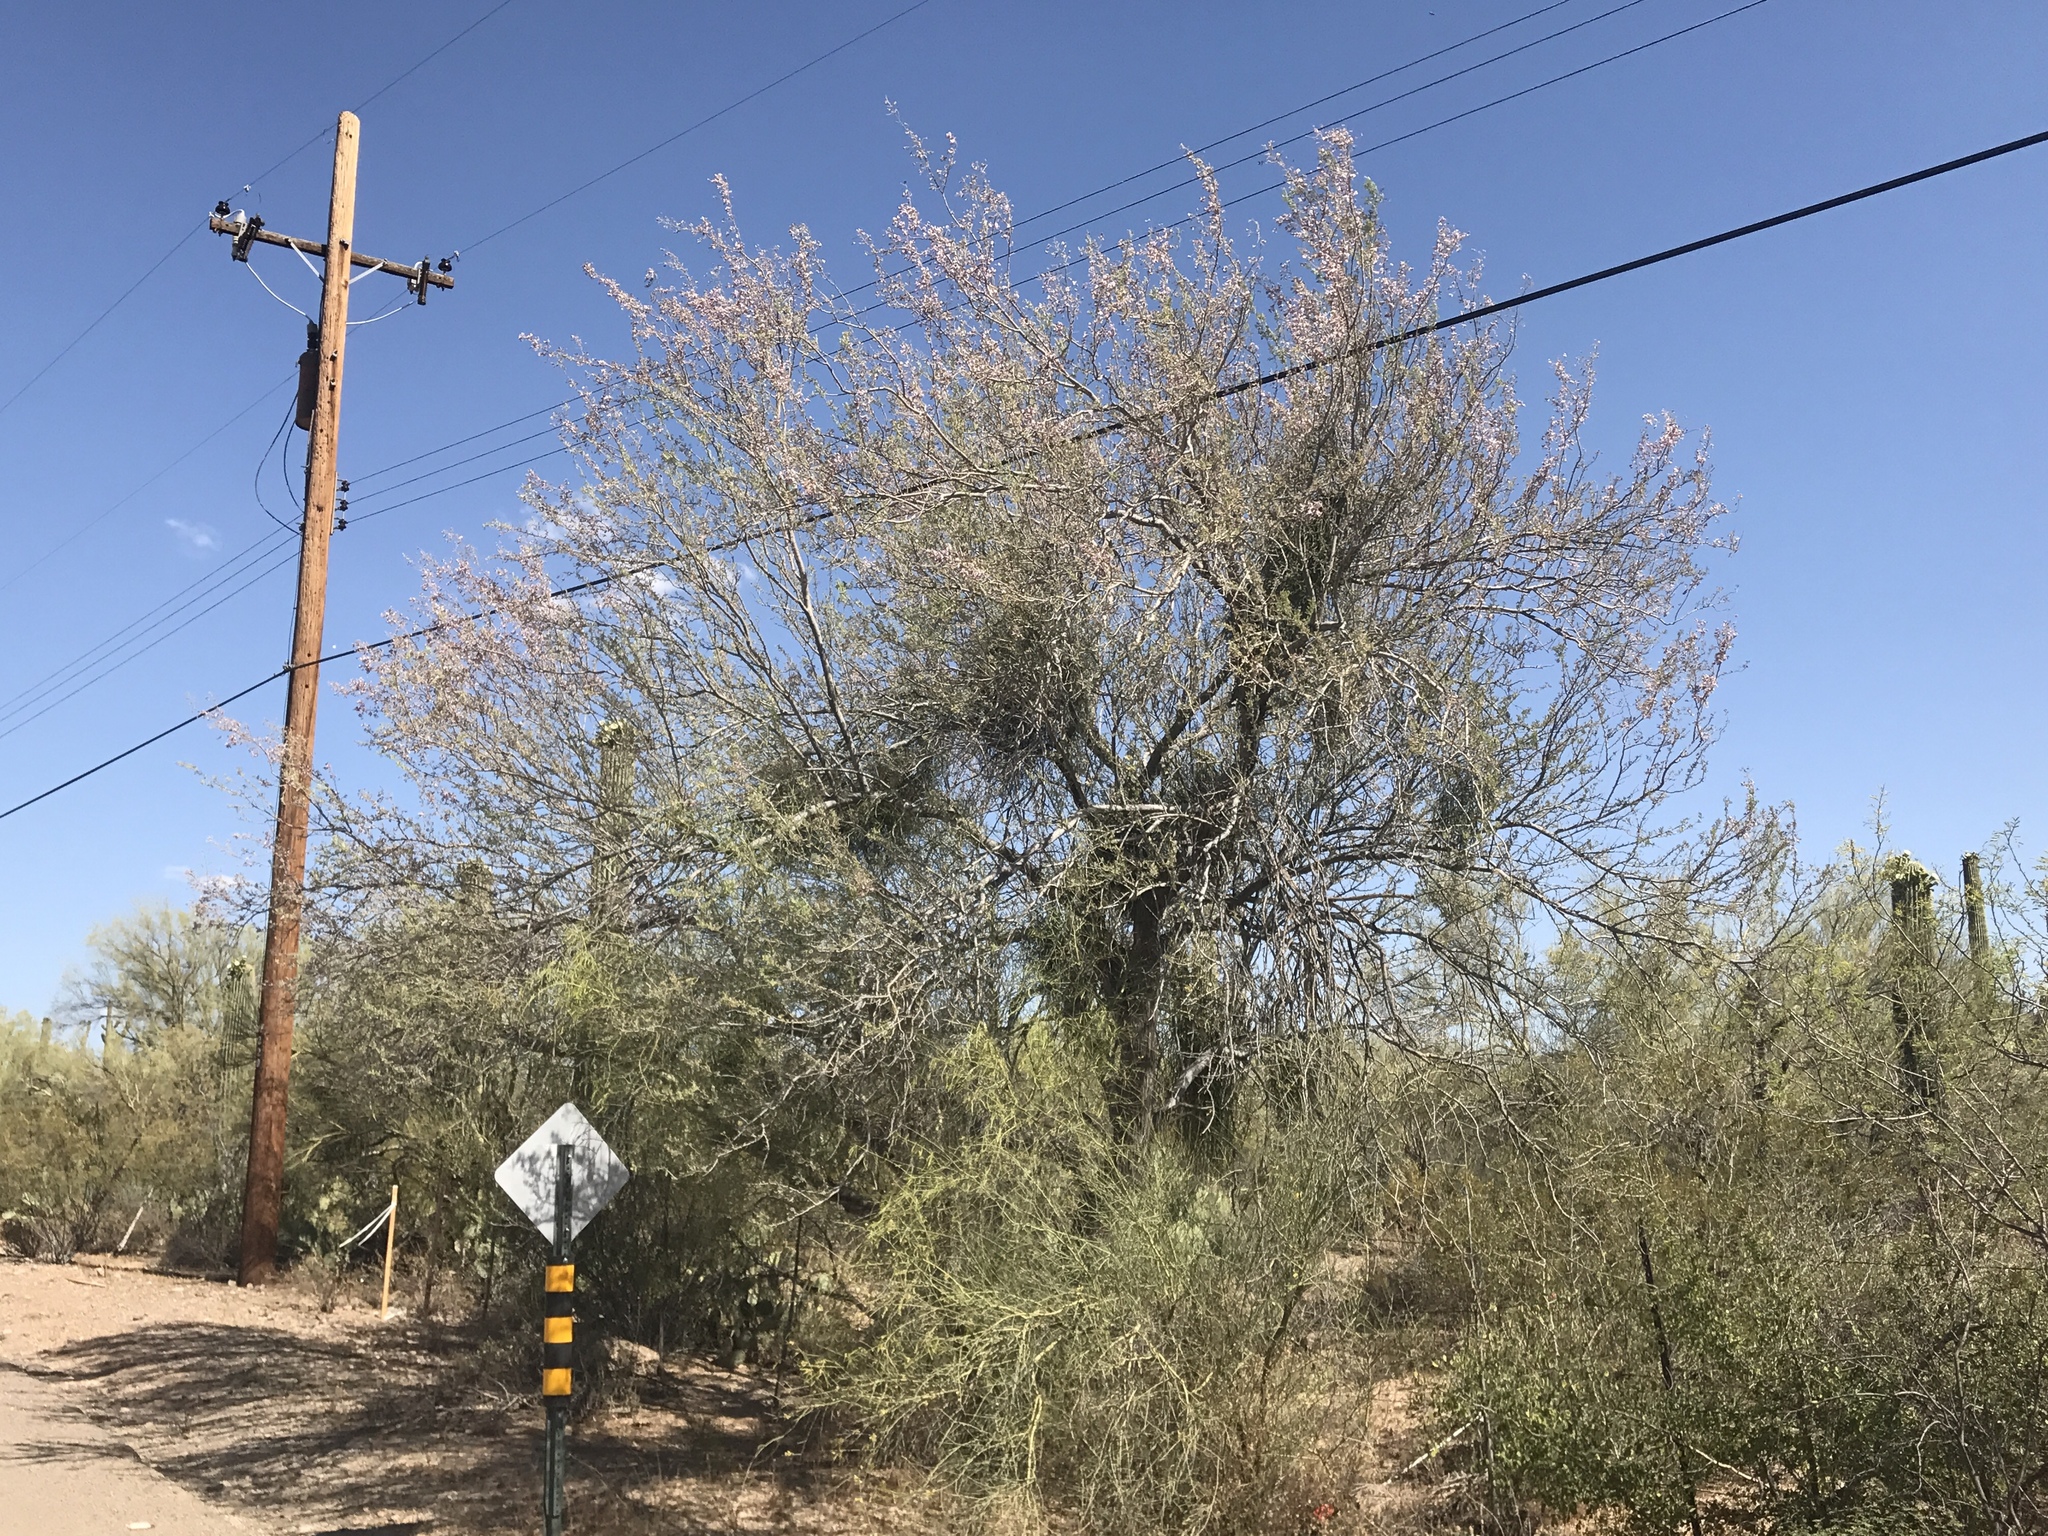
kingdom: Plantae
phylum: Tracheophyta
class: Magnoliopsida
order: Fabales
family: Fabaceae
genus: Olneya
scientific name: Olneya tesota
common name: Desert ironwood
